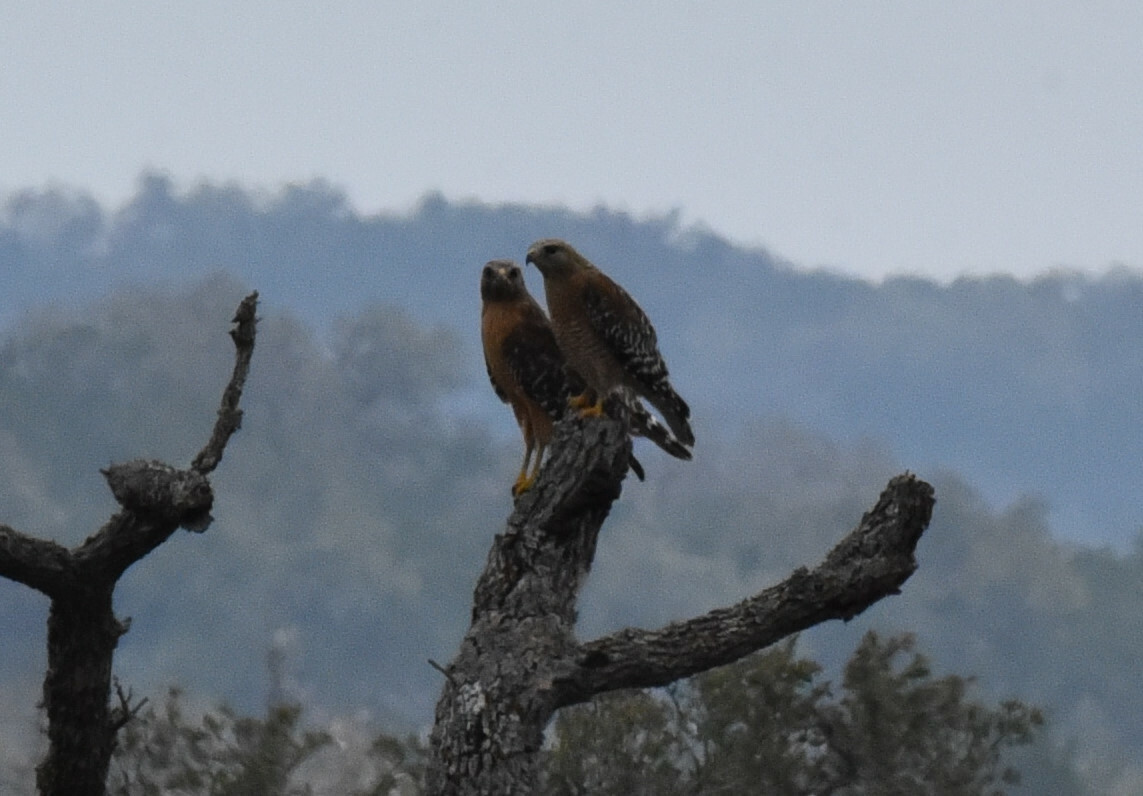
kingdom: Animalia
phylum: Chordata
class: Aves
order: Accipitriformes
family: Accipitridae
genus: Buteo
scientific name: Buteo lineatus
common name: Red-shouldered hawk
